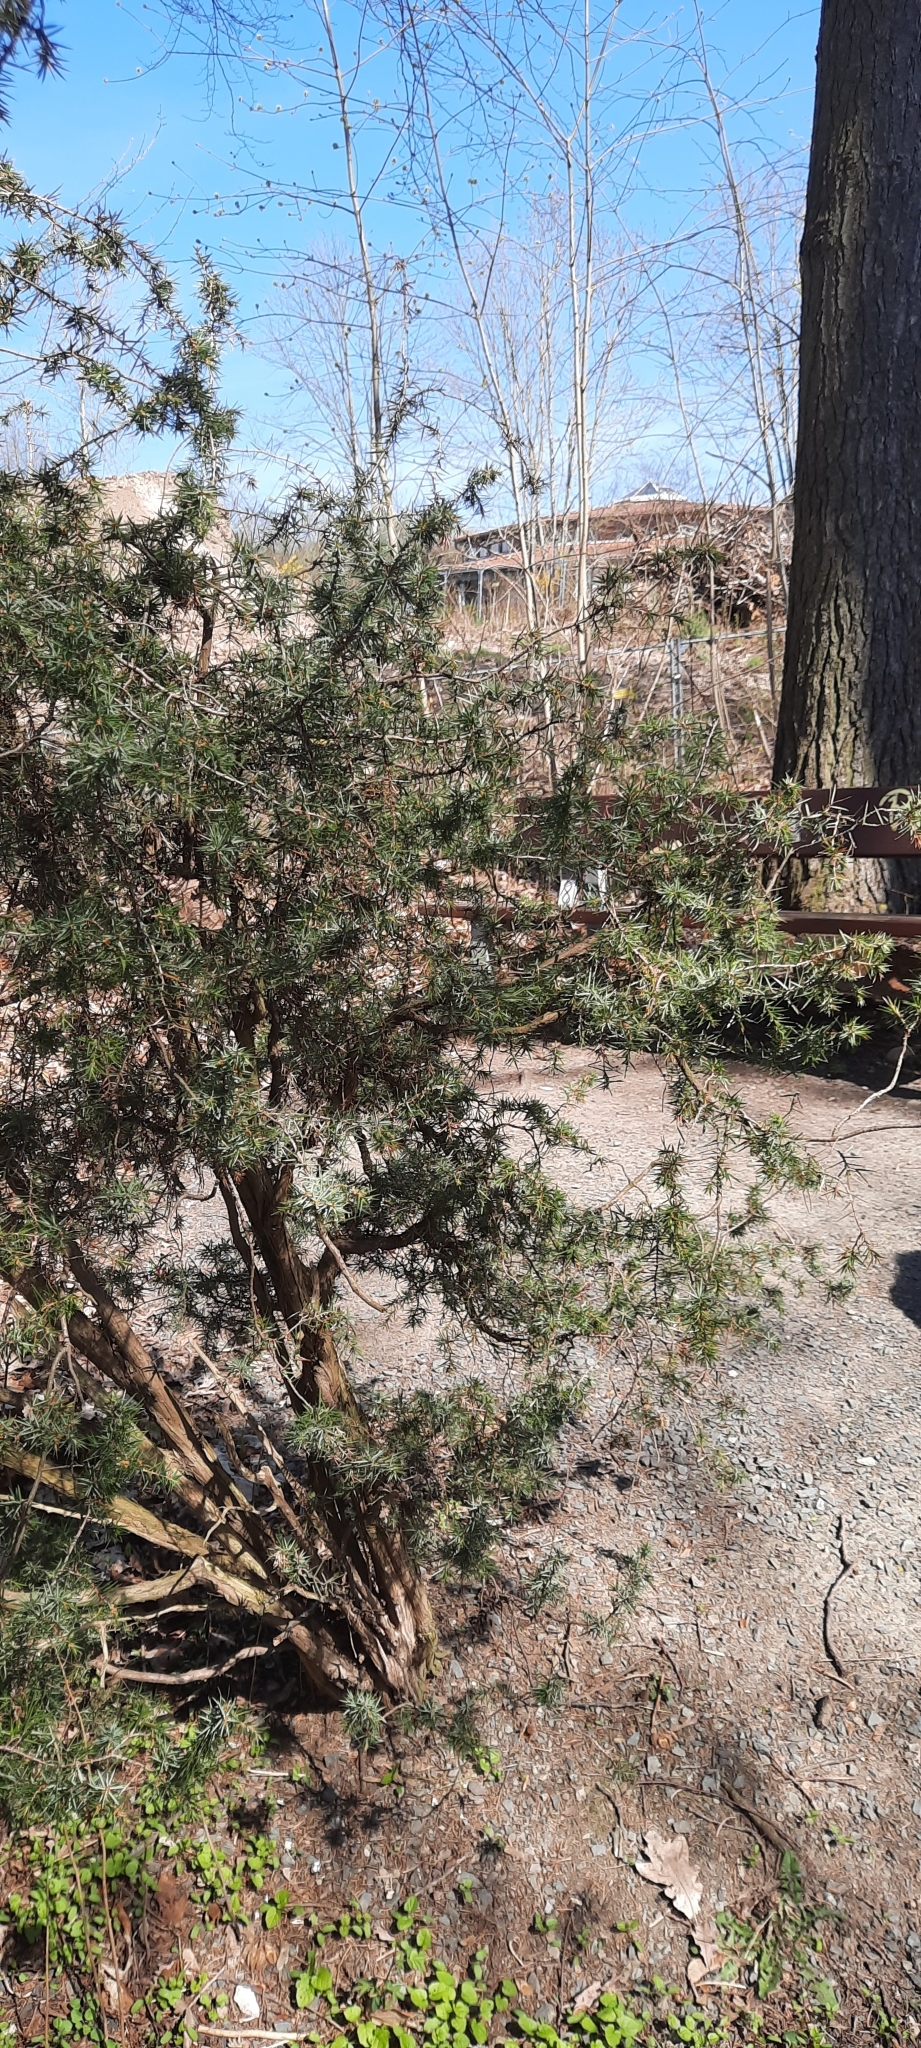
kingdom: Plantae
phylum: Tracheophyta
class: Pinopsida
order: Pinales
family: Cupressaceae
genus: Juniperus
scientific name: Juniperus communis
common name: Common juniper
